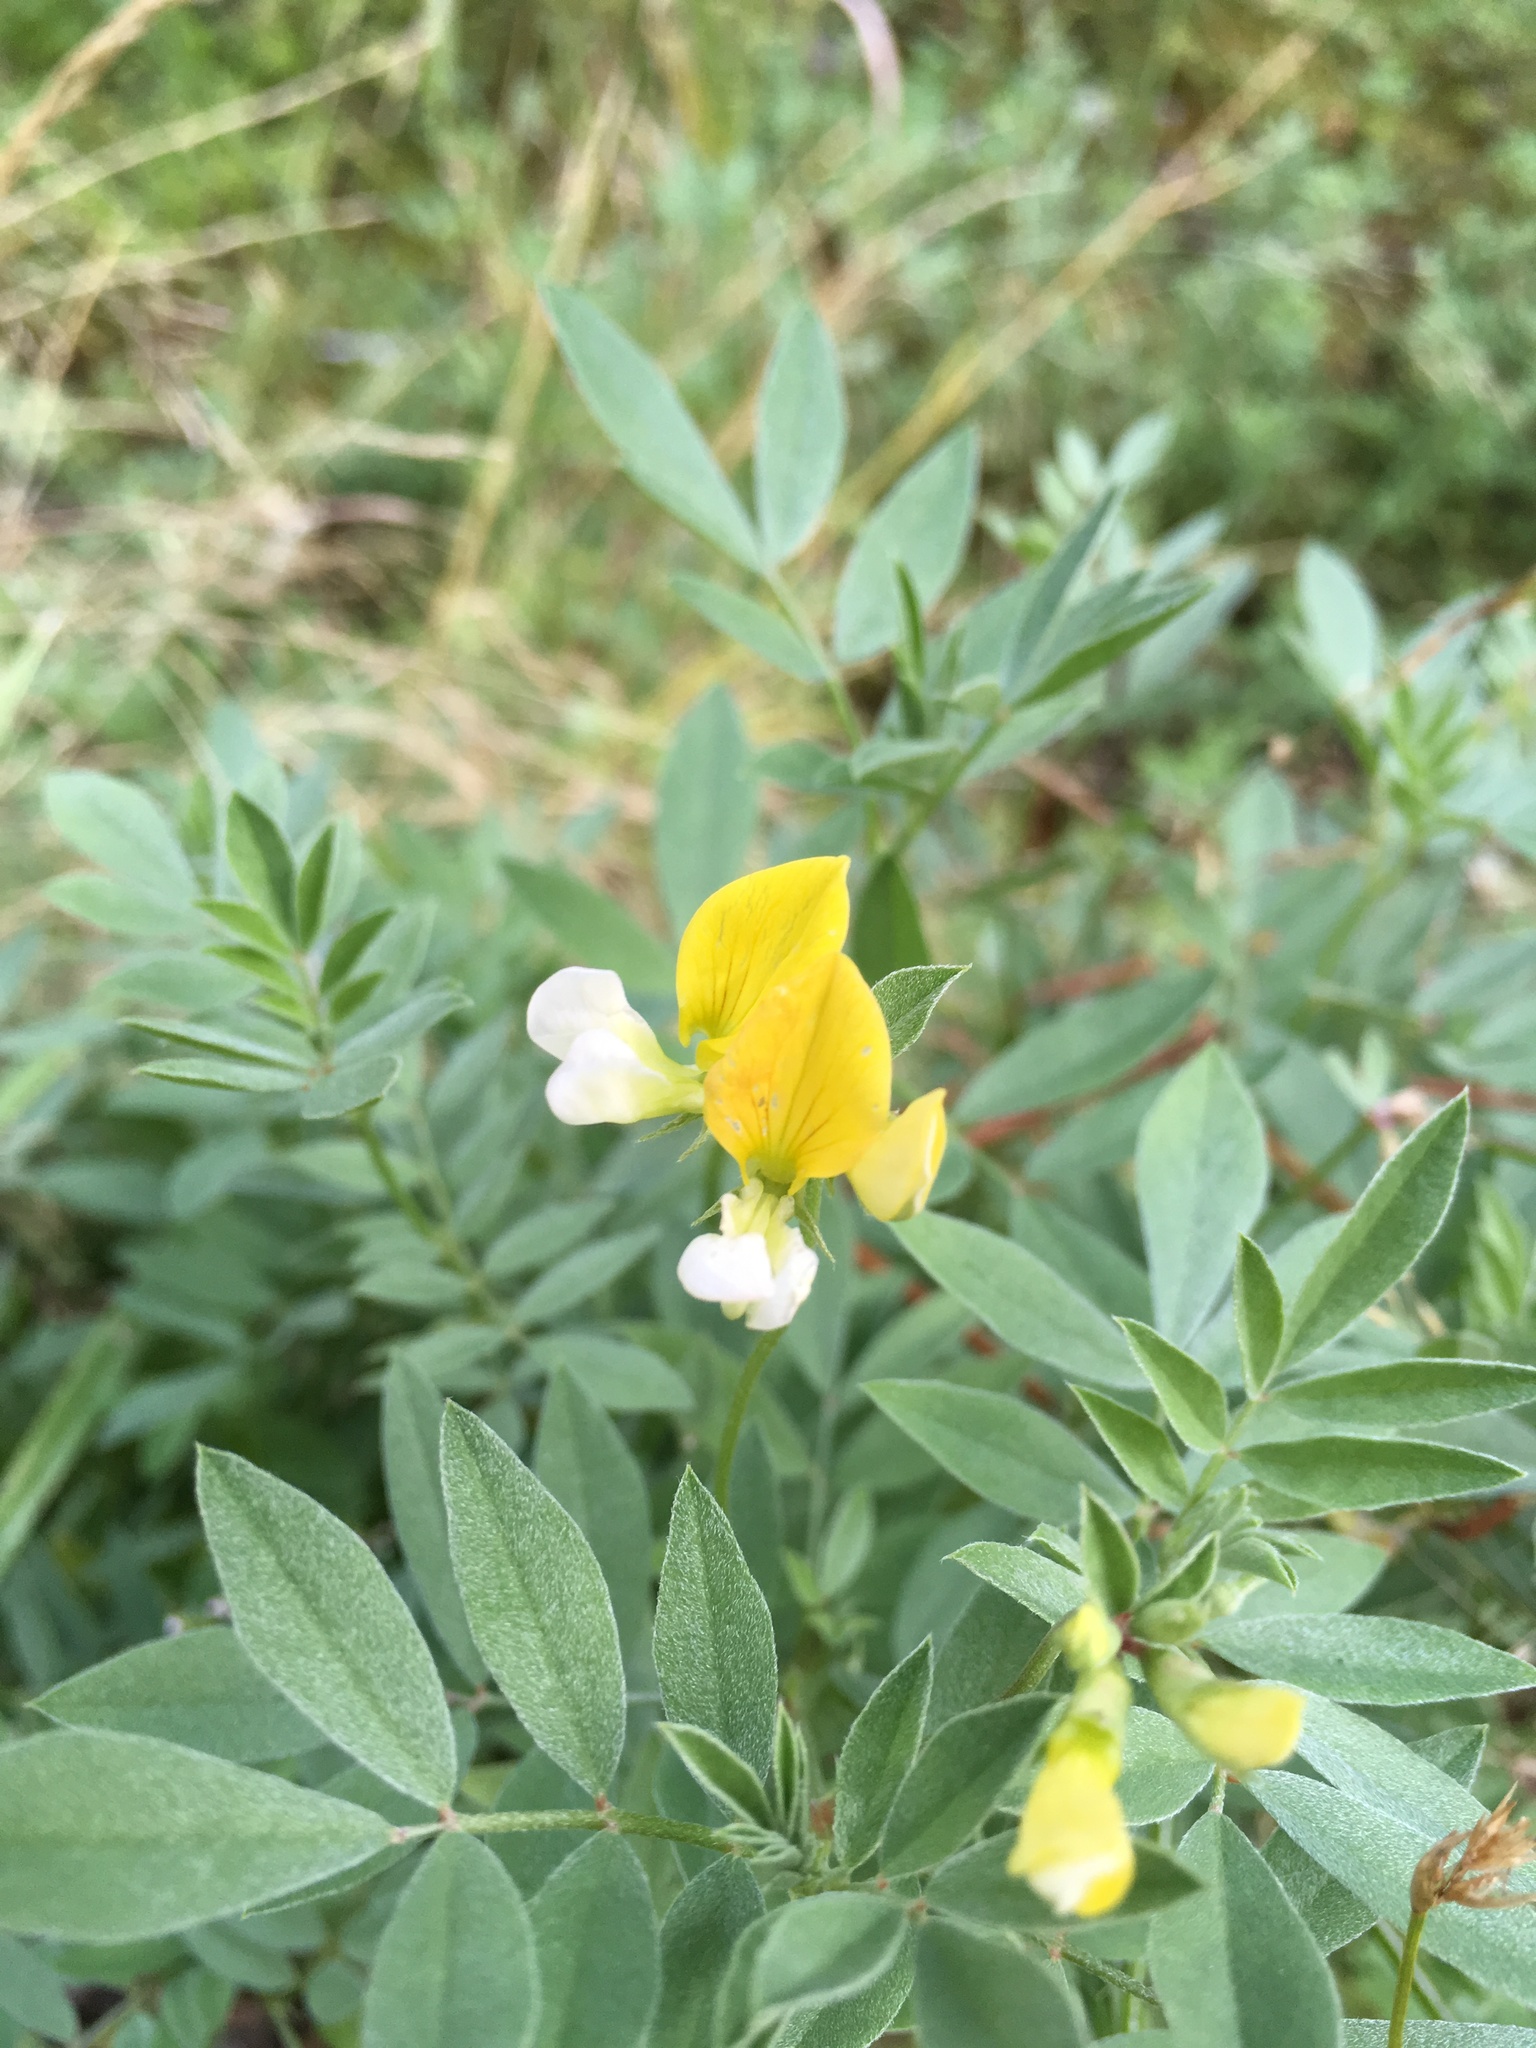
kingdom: Plantae
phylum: Tracheophyta
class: Magnoliopsida
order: Fabales
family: Fabaceae
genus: Hosackia
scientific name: Hosackia oblongifolia
